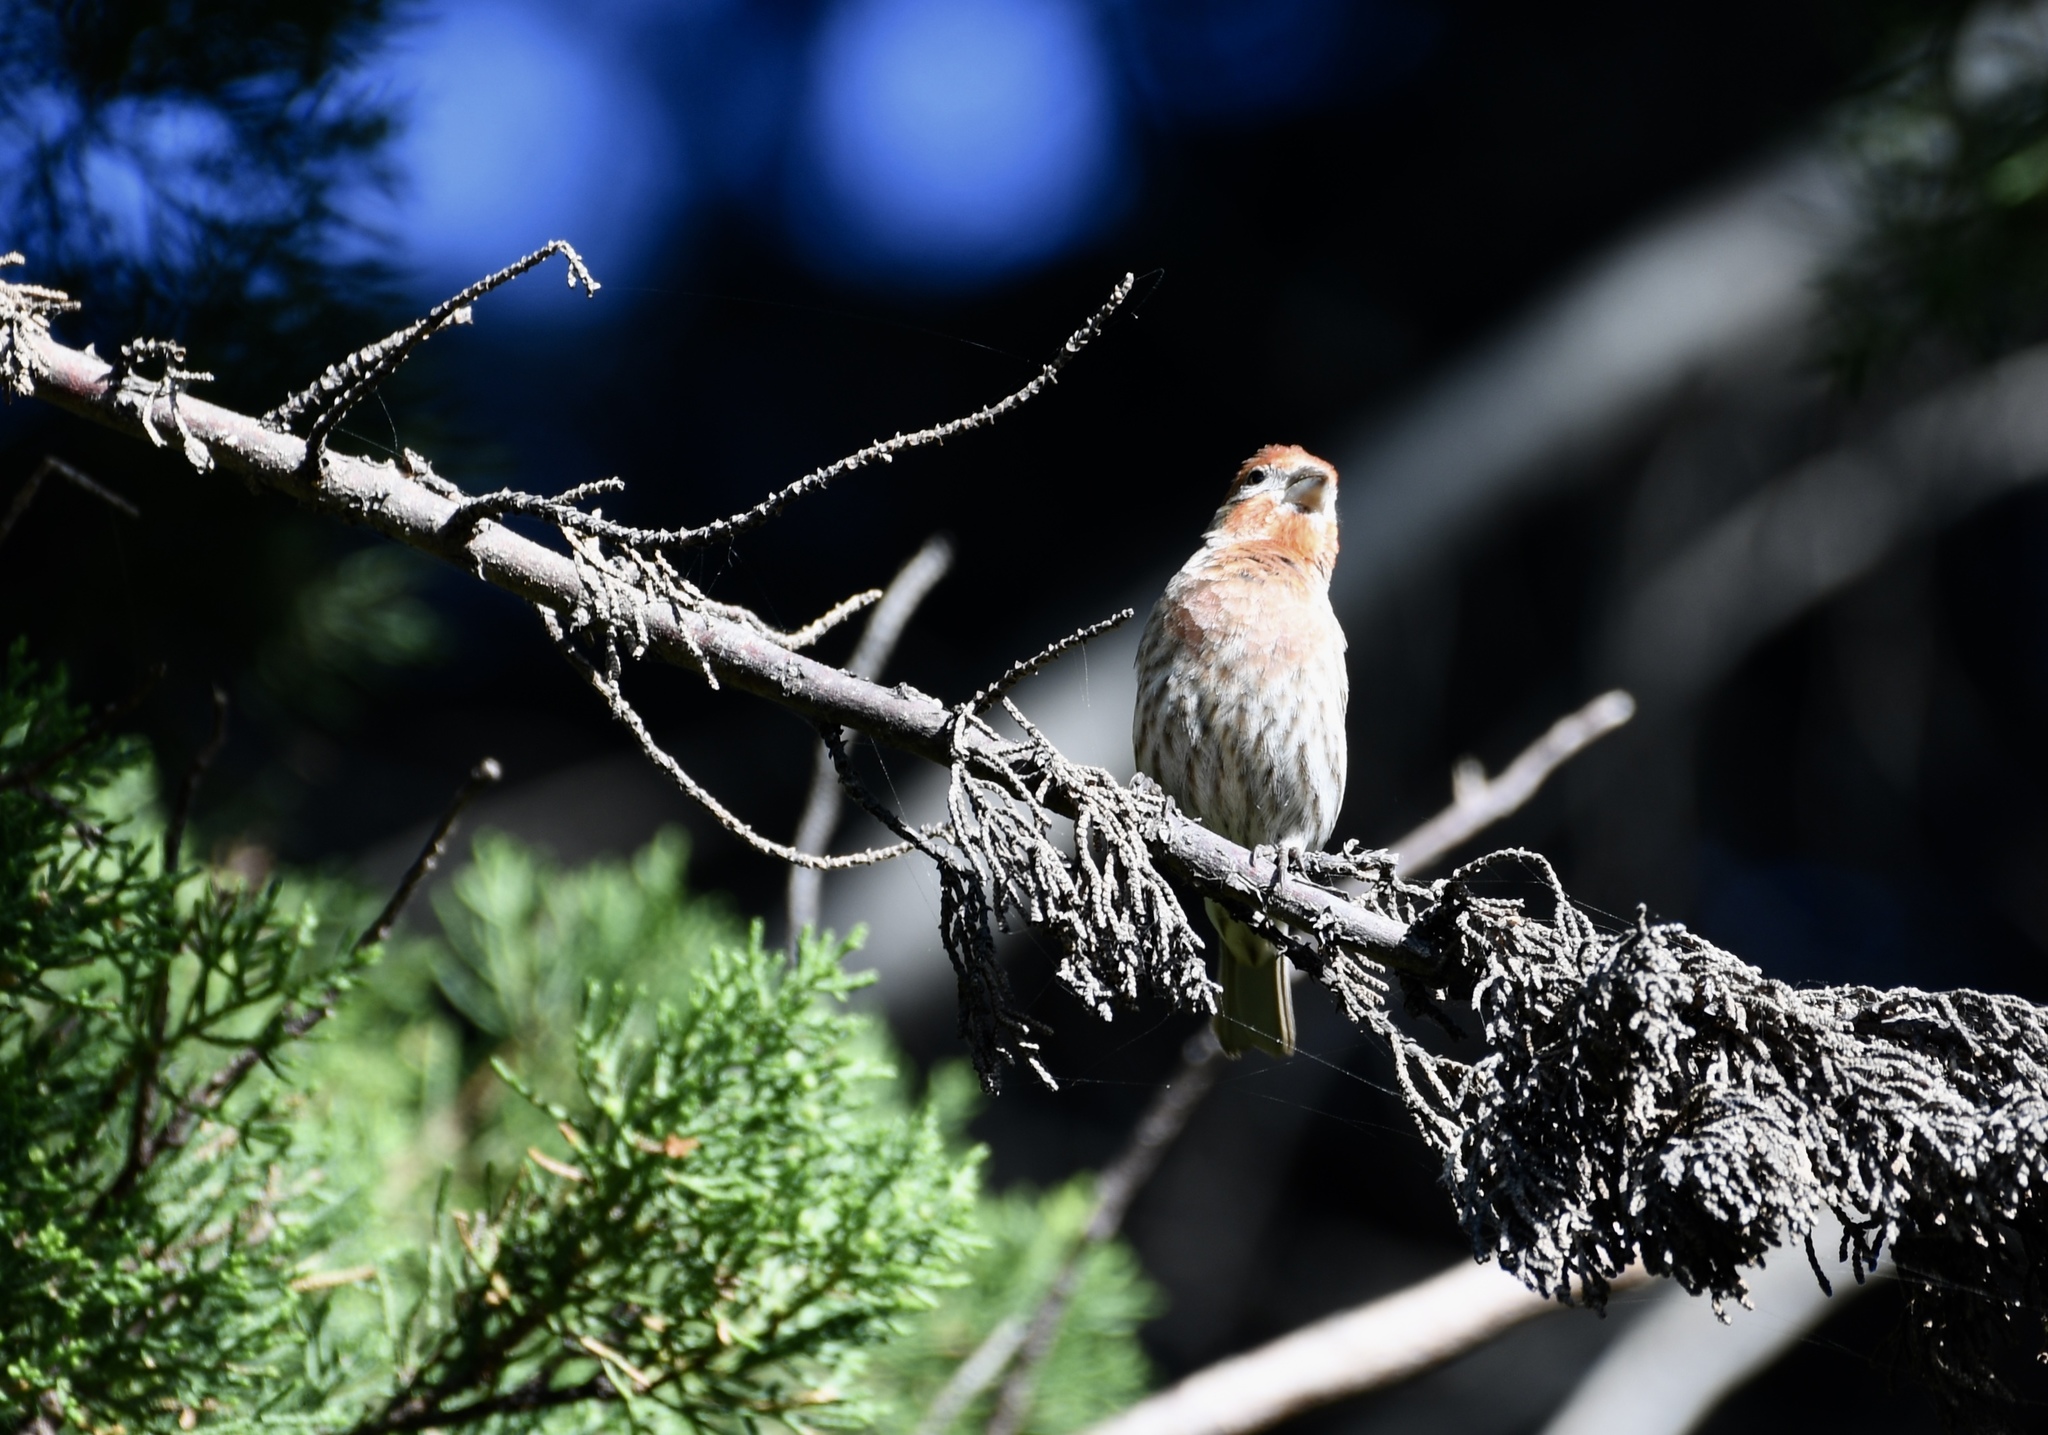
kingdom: Animalia
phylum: Chordata
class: Aves
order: Passeriformes
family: Fringillidae
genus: Haemorhous
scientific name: Haemorhous mexicanus
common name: House finch
